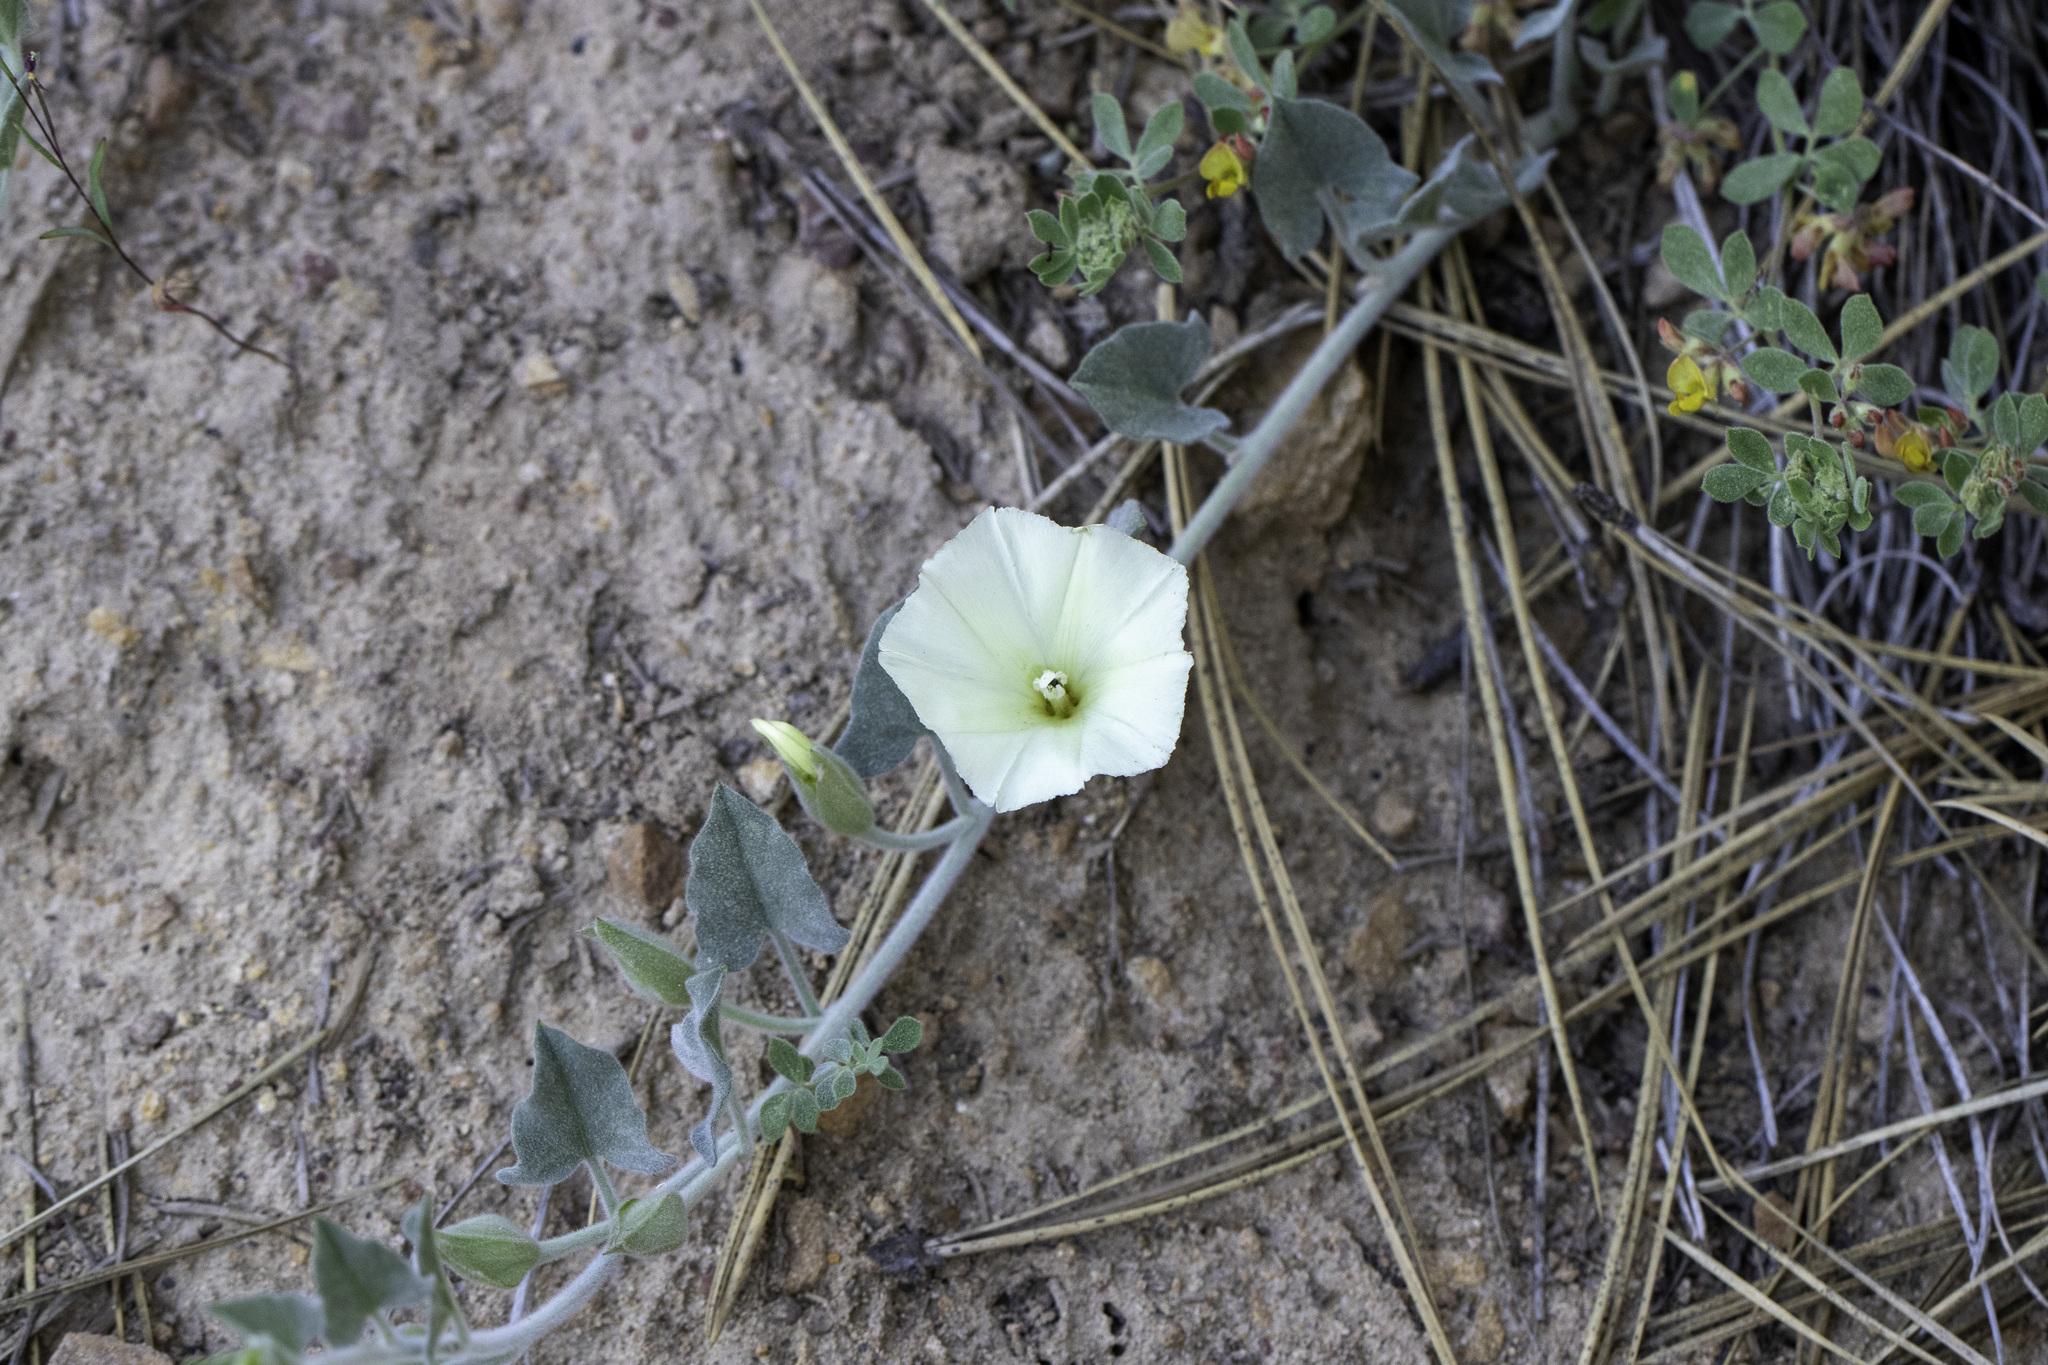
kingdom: Plantae
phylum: Tracheophyta
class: Magnoliopsida
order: Solanales
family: Convolvulaceae
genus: Calystegia
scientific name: Calystegia malacophylla
